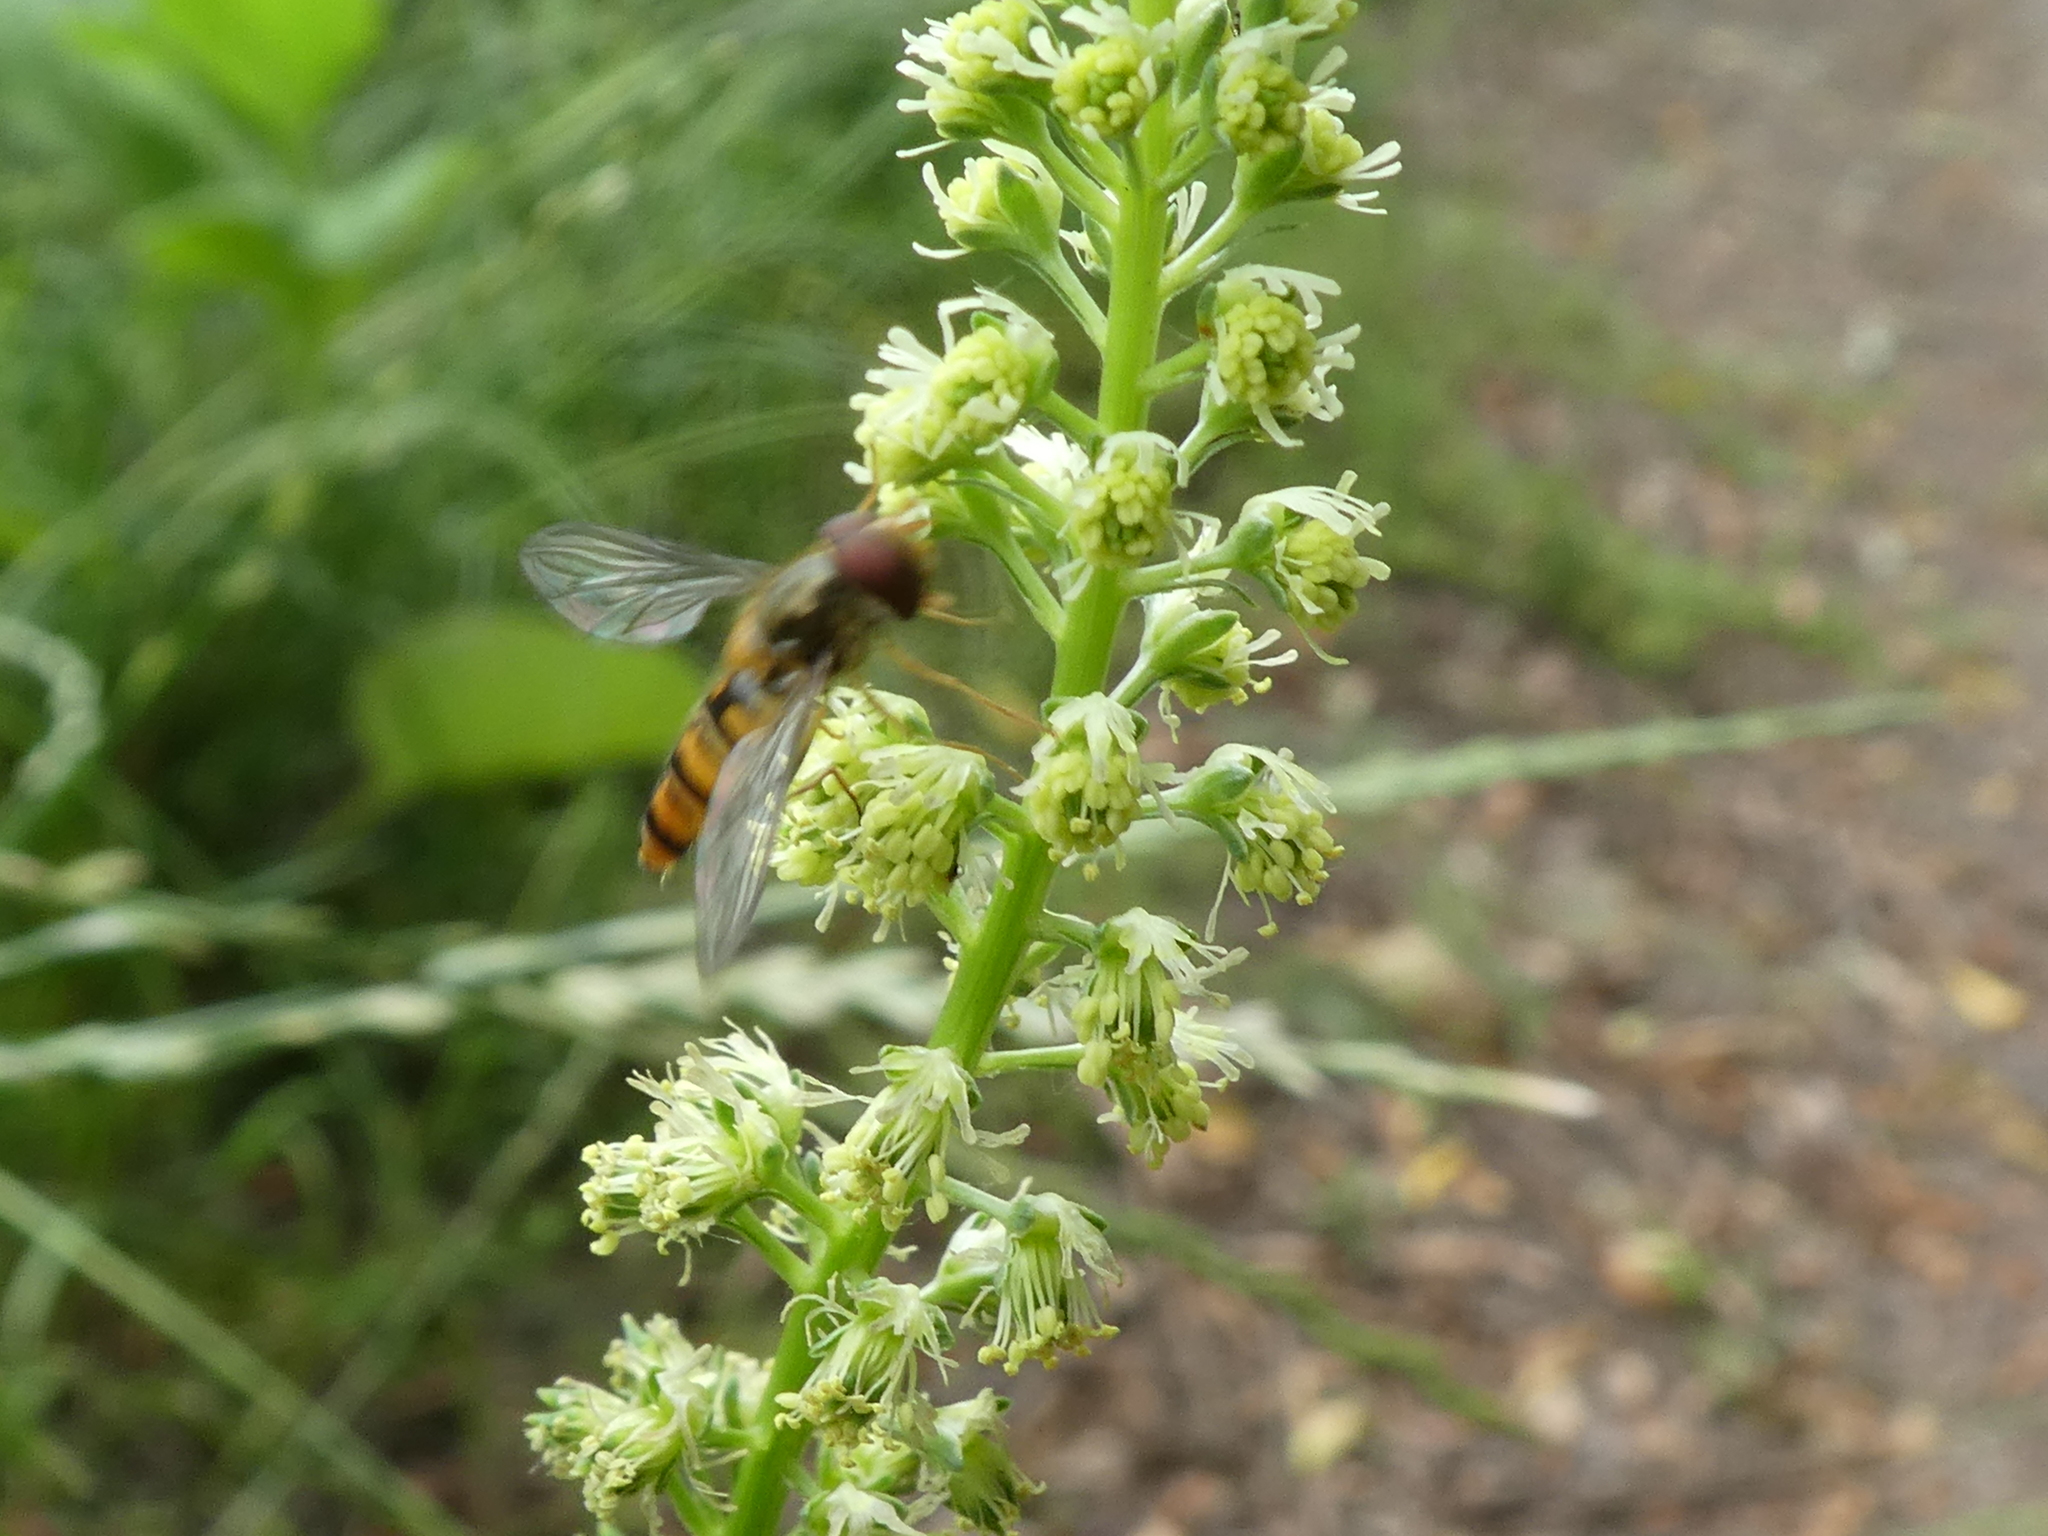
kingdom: Plantae
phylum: Tracheophyta
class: Magnoliopsida
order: Brassicales
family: Resedaceae
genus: Reseda
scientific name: Reseda luteola
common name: Weld
